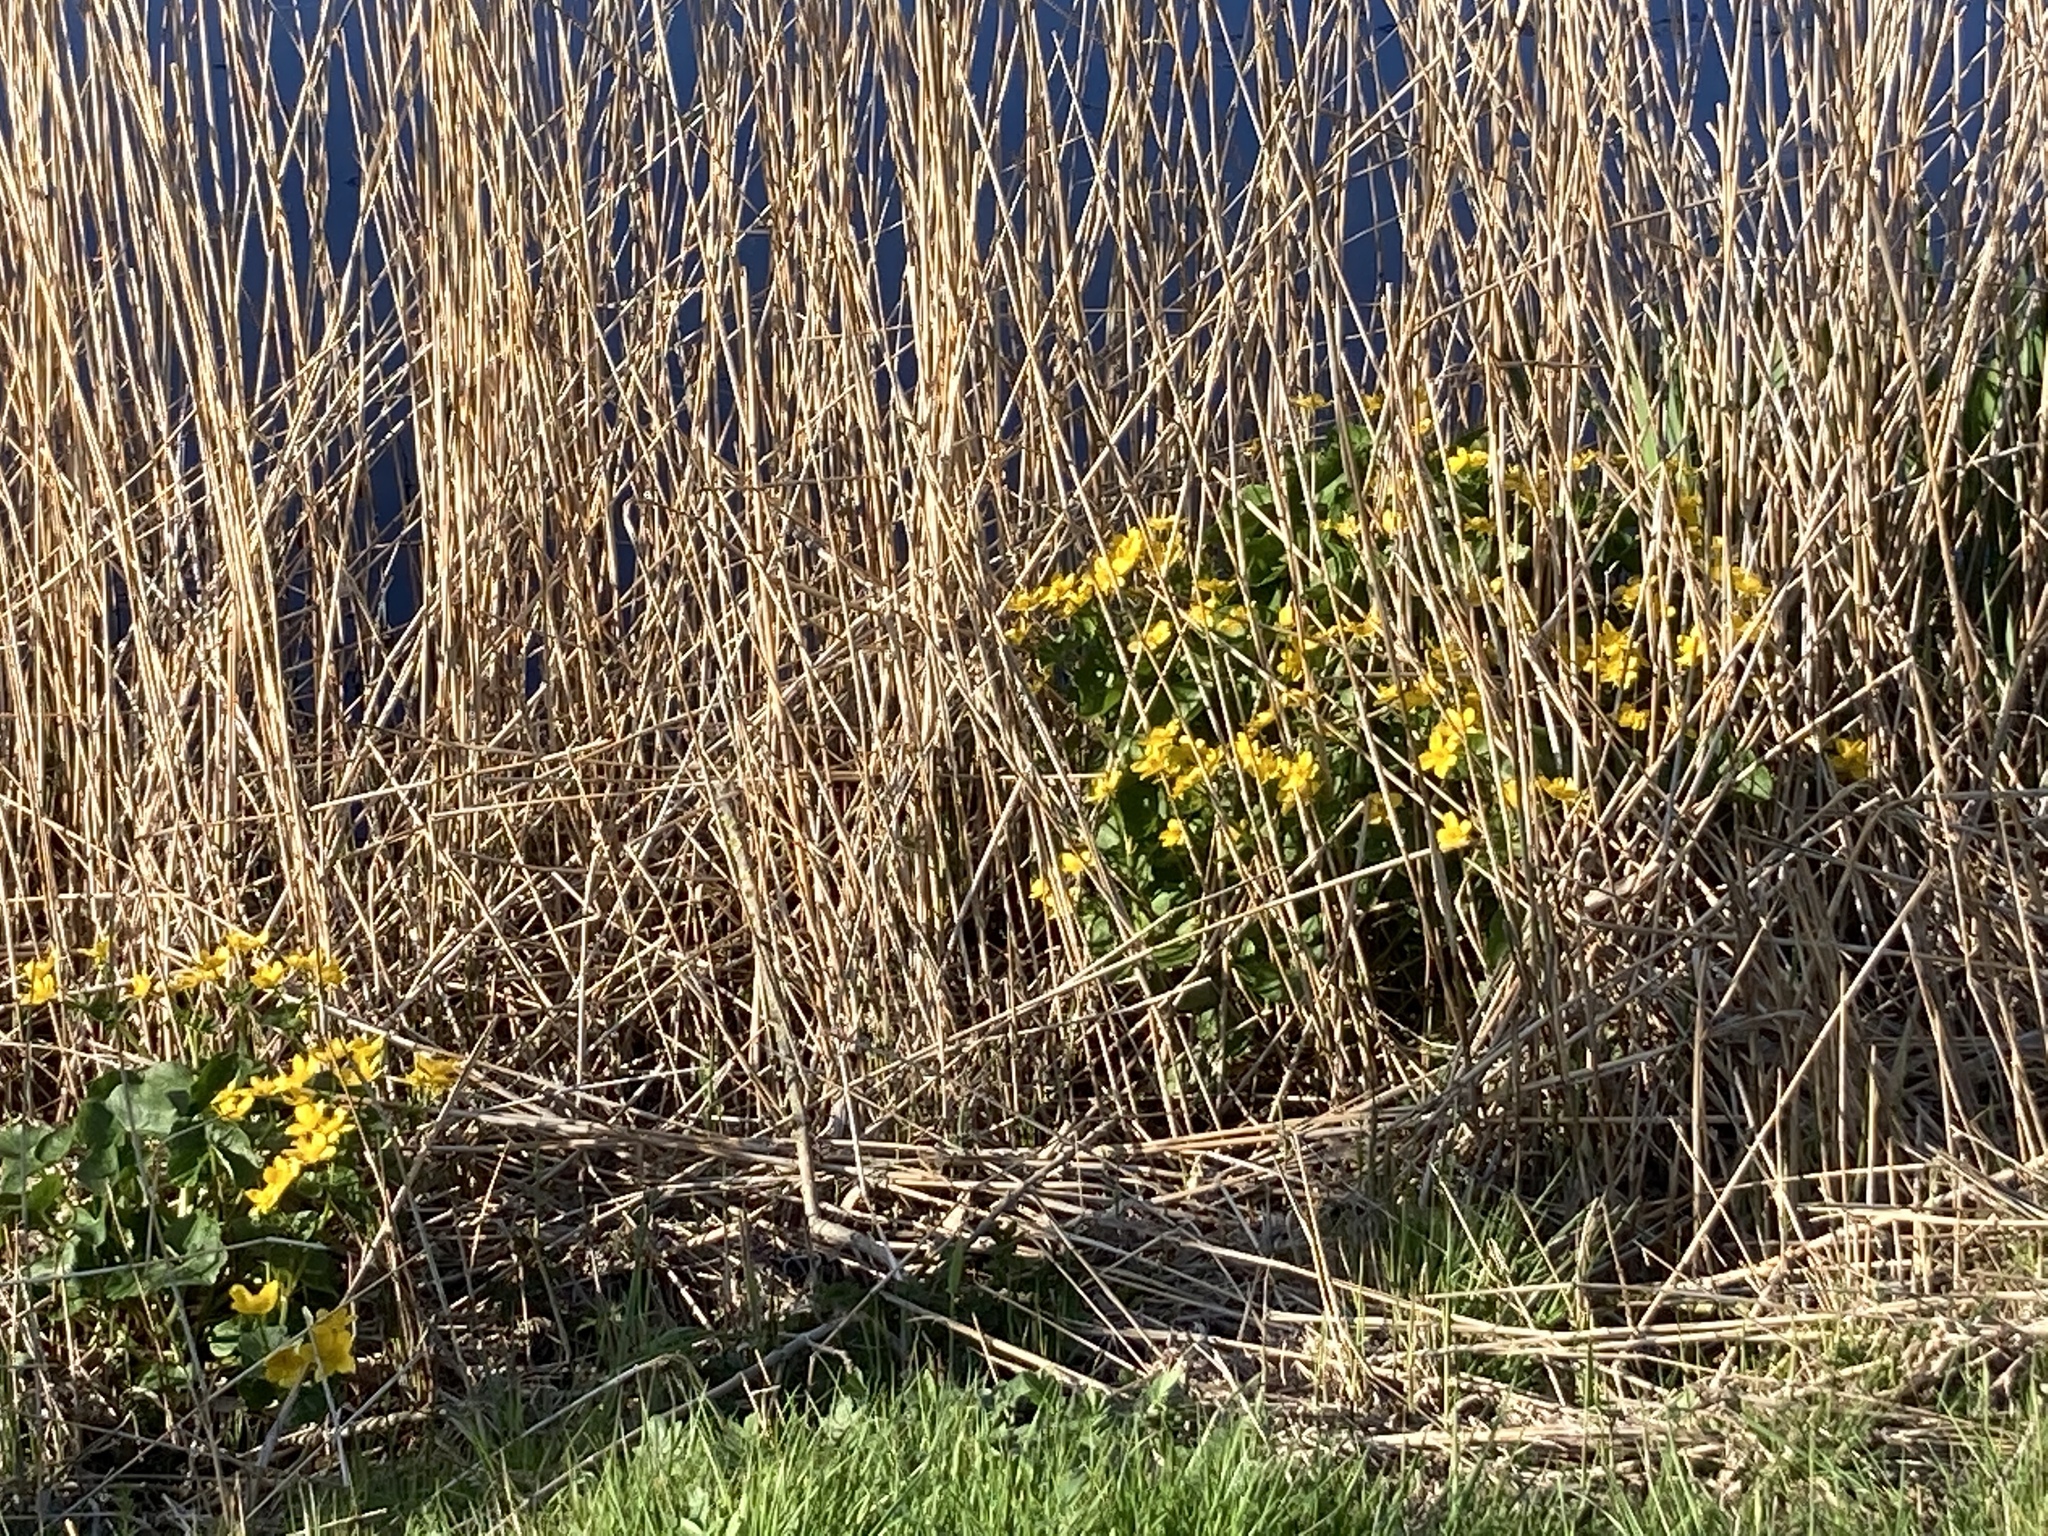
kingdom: Plantae
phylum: Tracheophyta
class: Magnoliopsida
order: Ranunculales
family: Ranunculaceae
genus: Caltha
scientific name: Caltha palustris
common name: Marsh marigold
